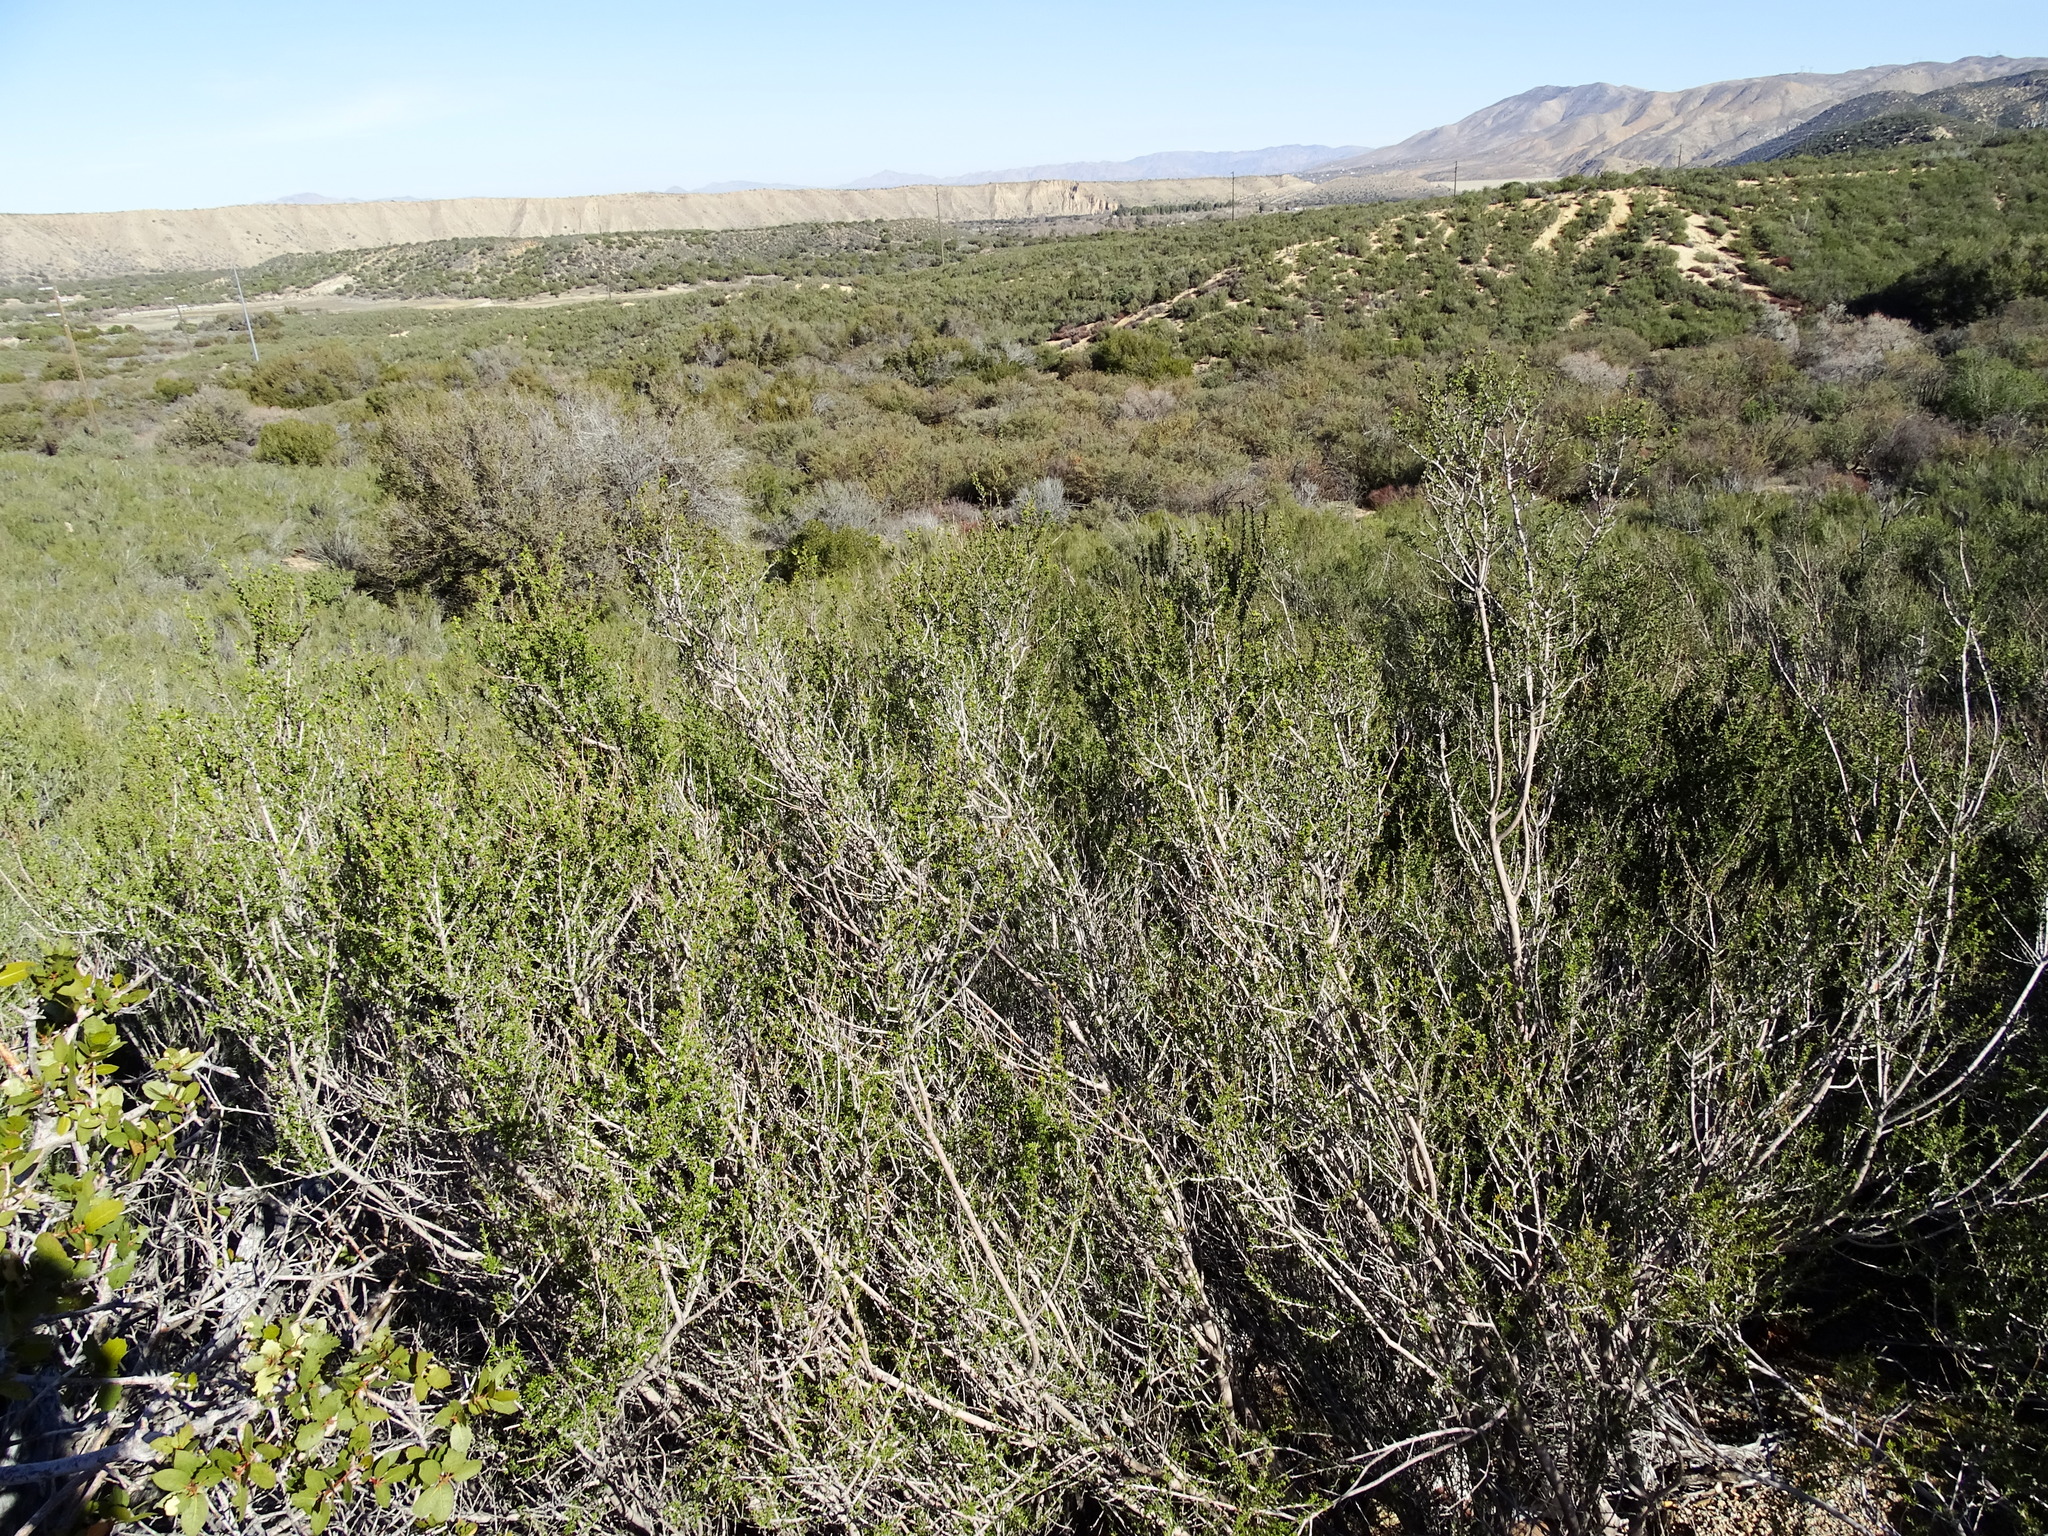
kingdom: Plantae
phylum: Tracheophyta
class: Magnoliopsida
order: Rosales
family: Rosaceae
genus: Adenostoma
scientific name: Adenostoma fasciculatum
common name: Chamise
